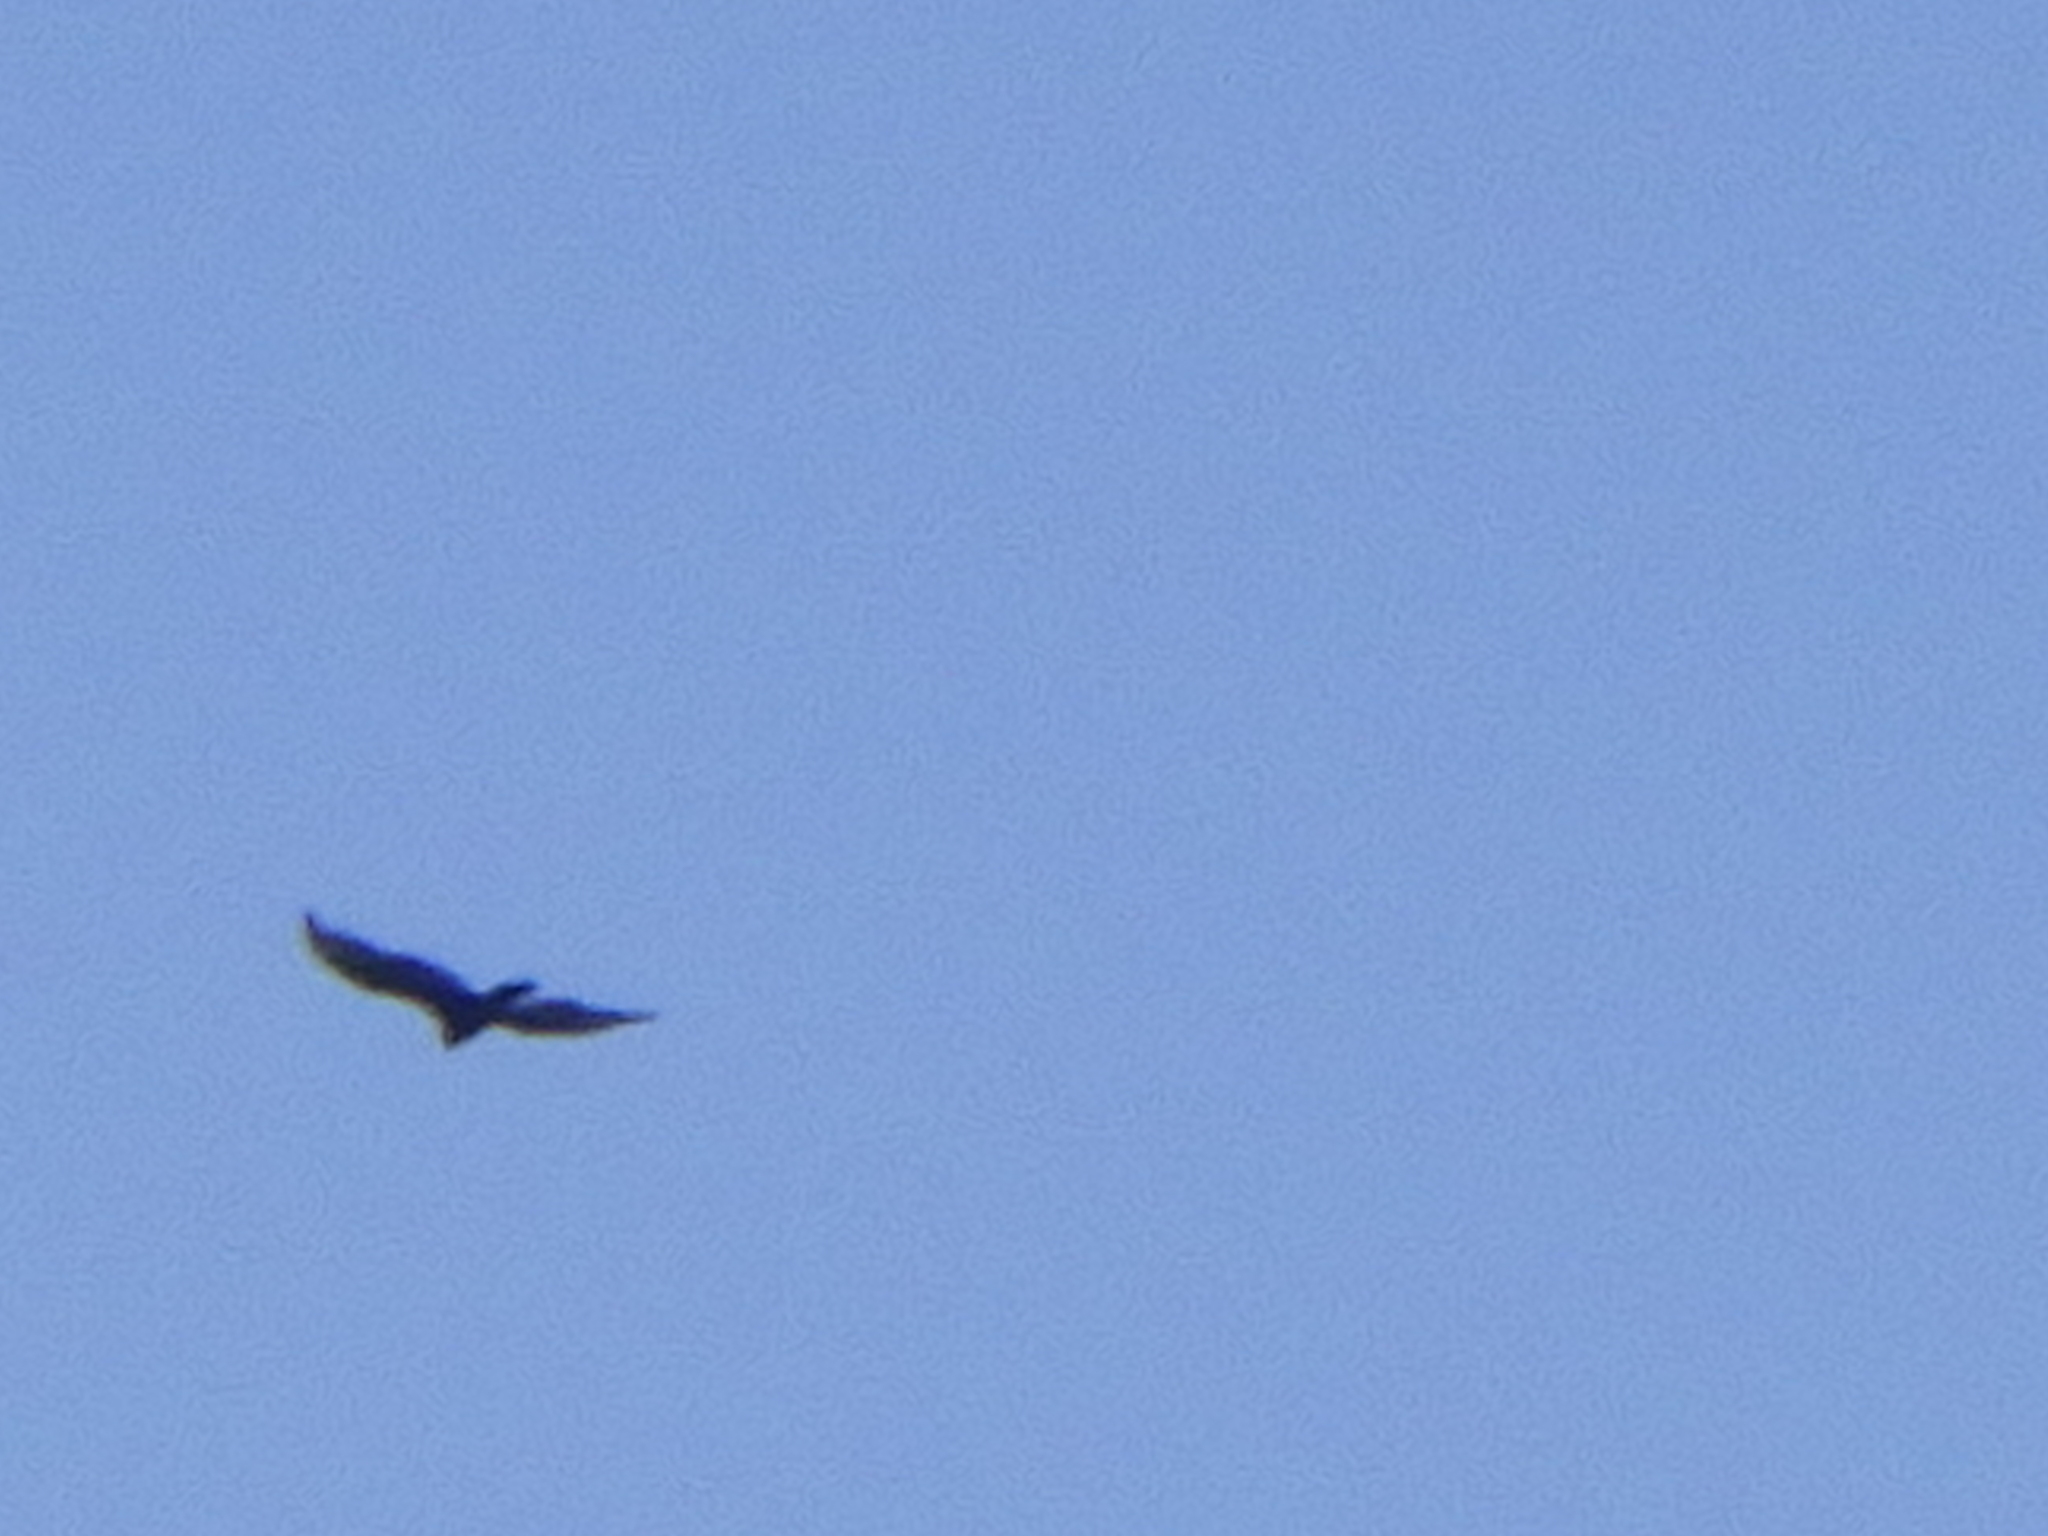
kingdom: Animalia
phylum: Chordata
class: Aves
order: Accipitriformes
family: Cathartidae
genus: Cathartes
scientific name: Cathartes aura
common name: Turkey vulture
